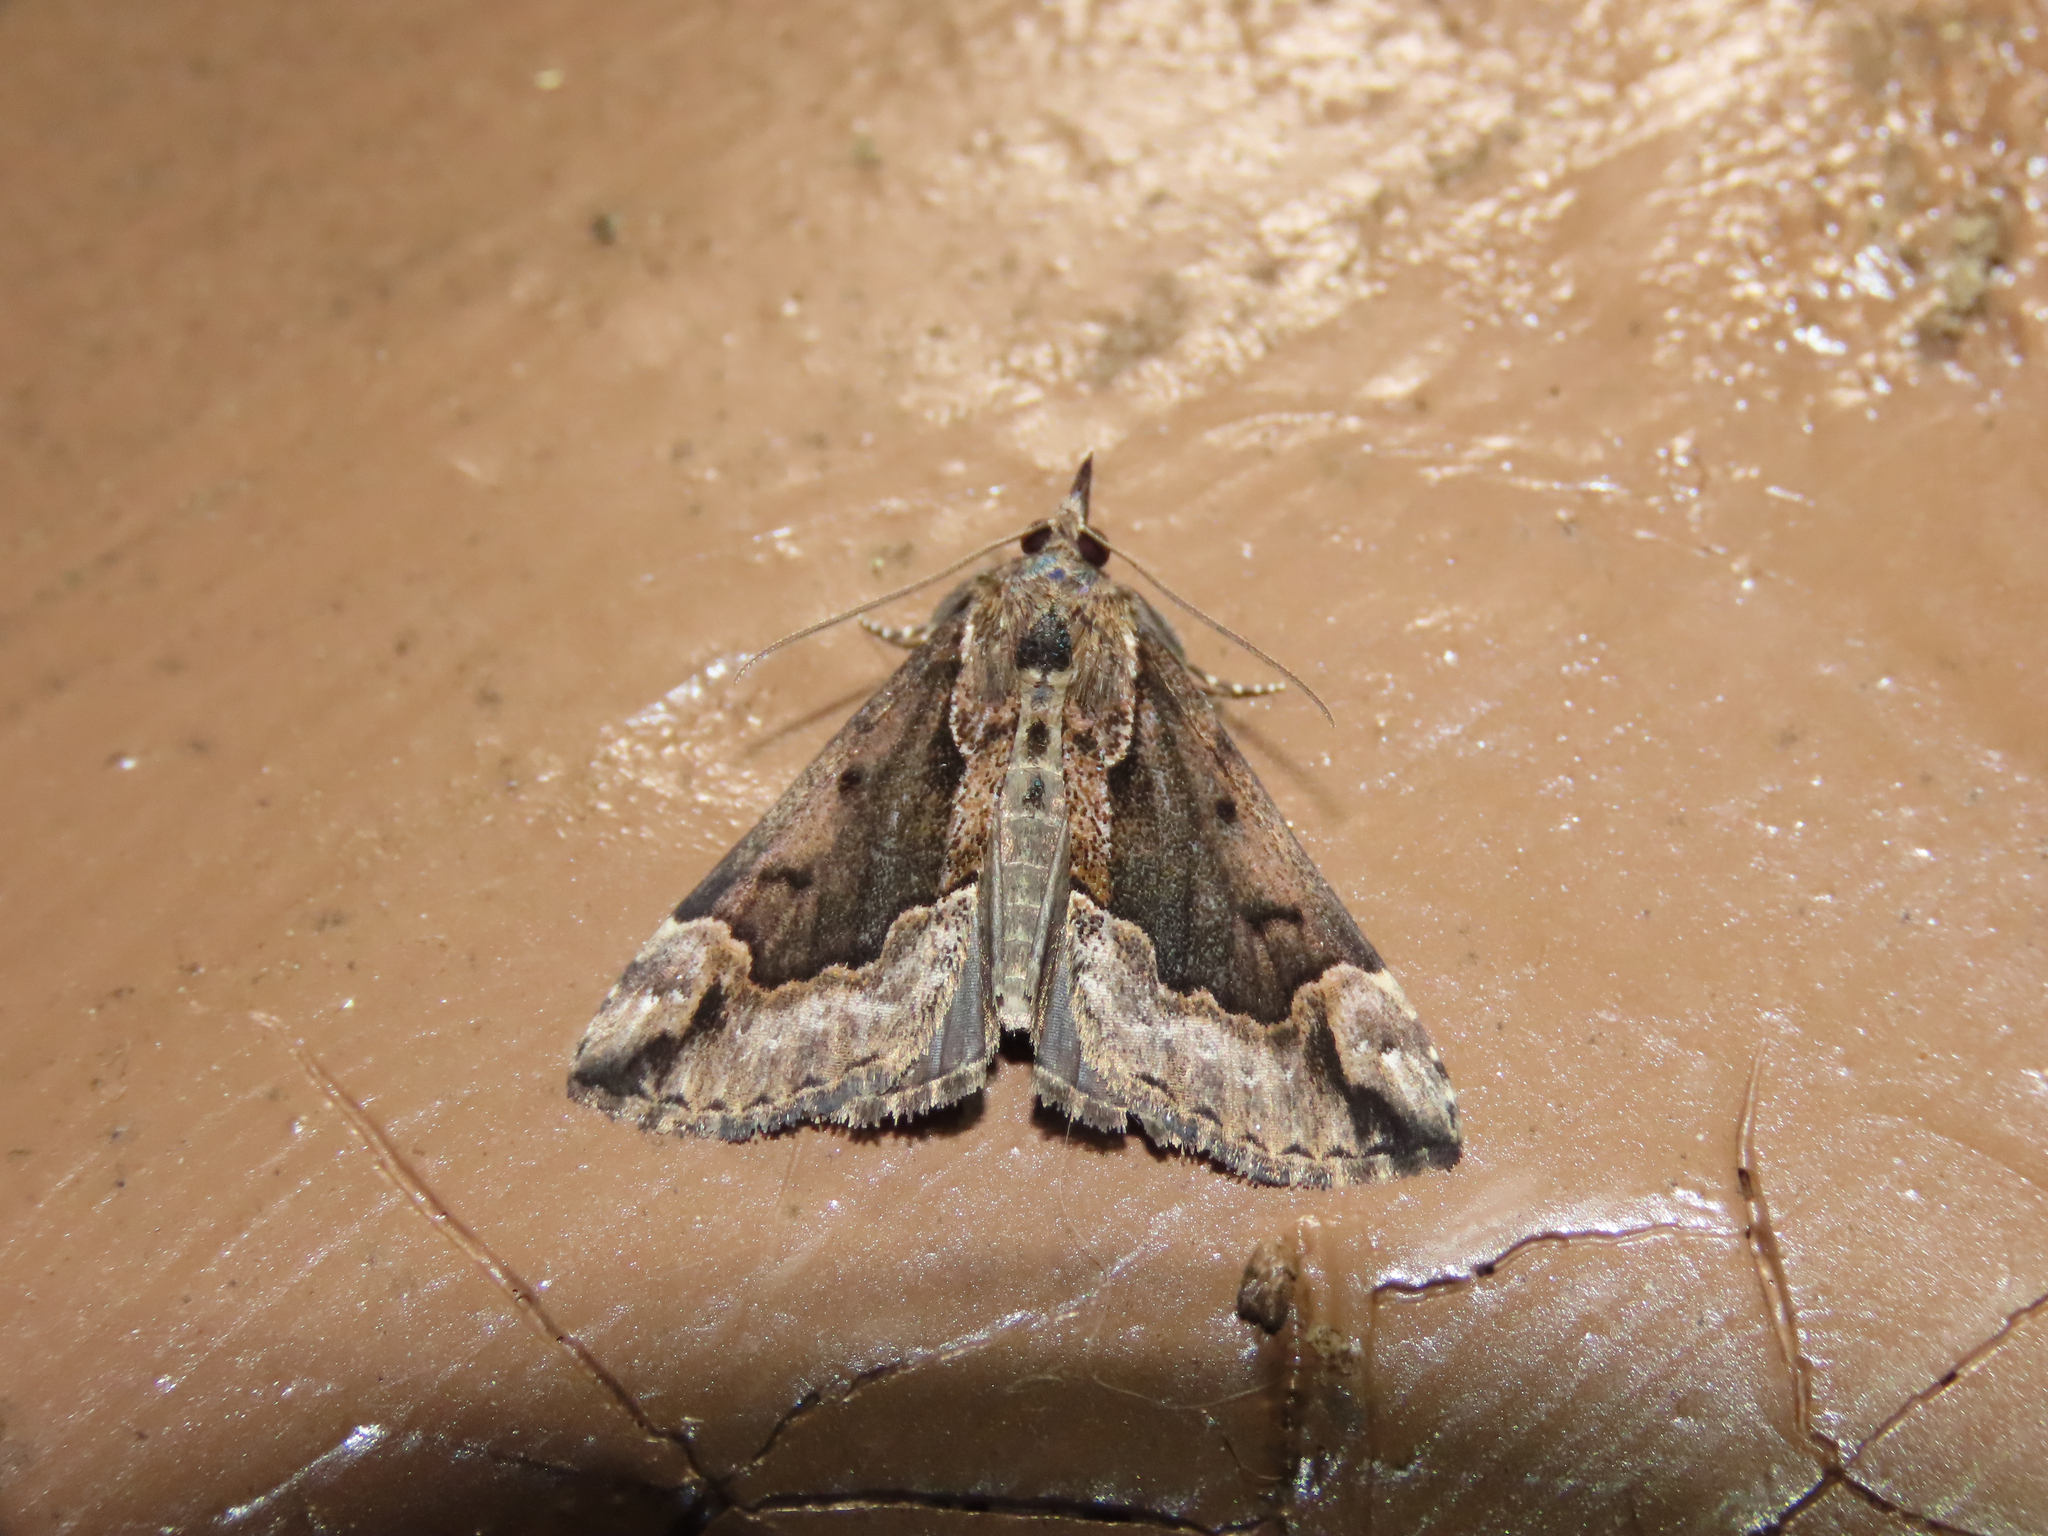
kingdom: Animalia
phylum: Arthropoda
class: Insecta
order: Lepidoptera
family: Erebidae
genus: Hypena
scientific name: Hypena baltimoralis
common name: Baltimore snout
